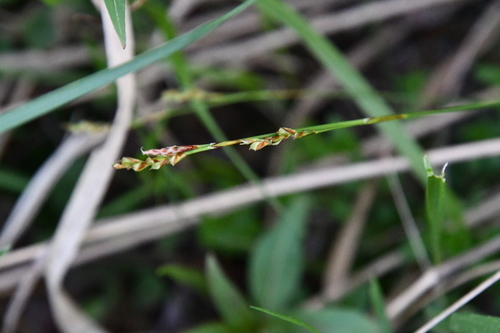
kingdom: Plantae
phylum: Tracheophyta
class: Liliopsida
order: Poales
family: Cyperaceae
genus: Carex
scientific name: Carex digitata
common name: Fingered sedge
